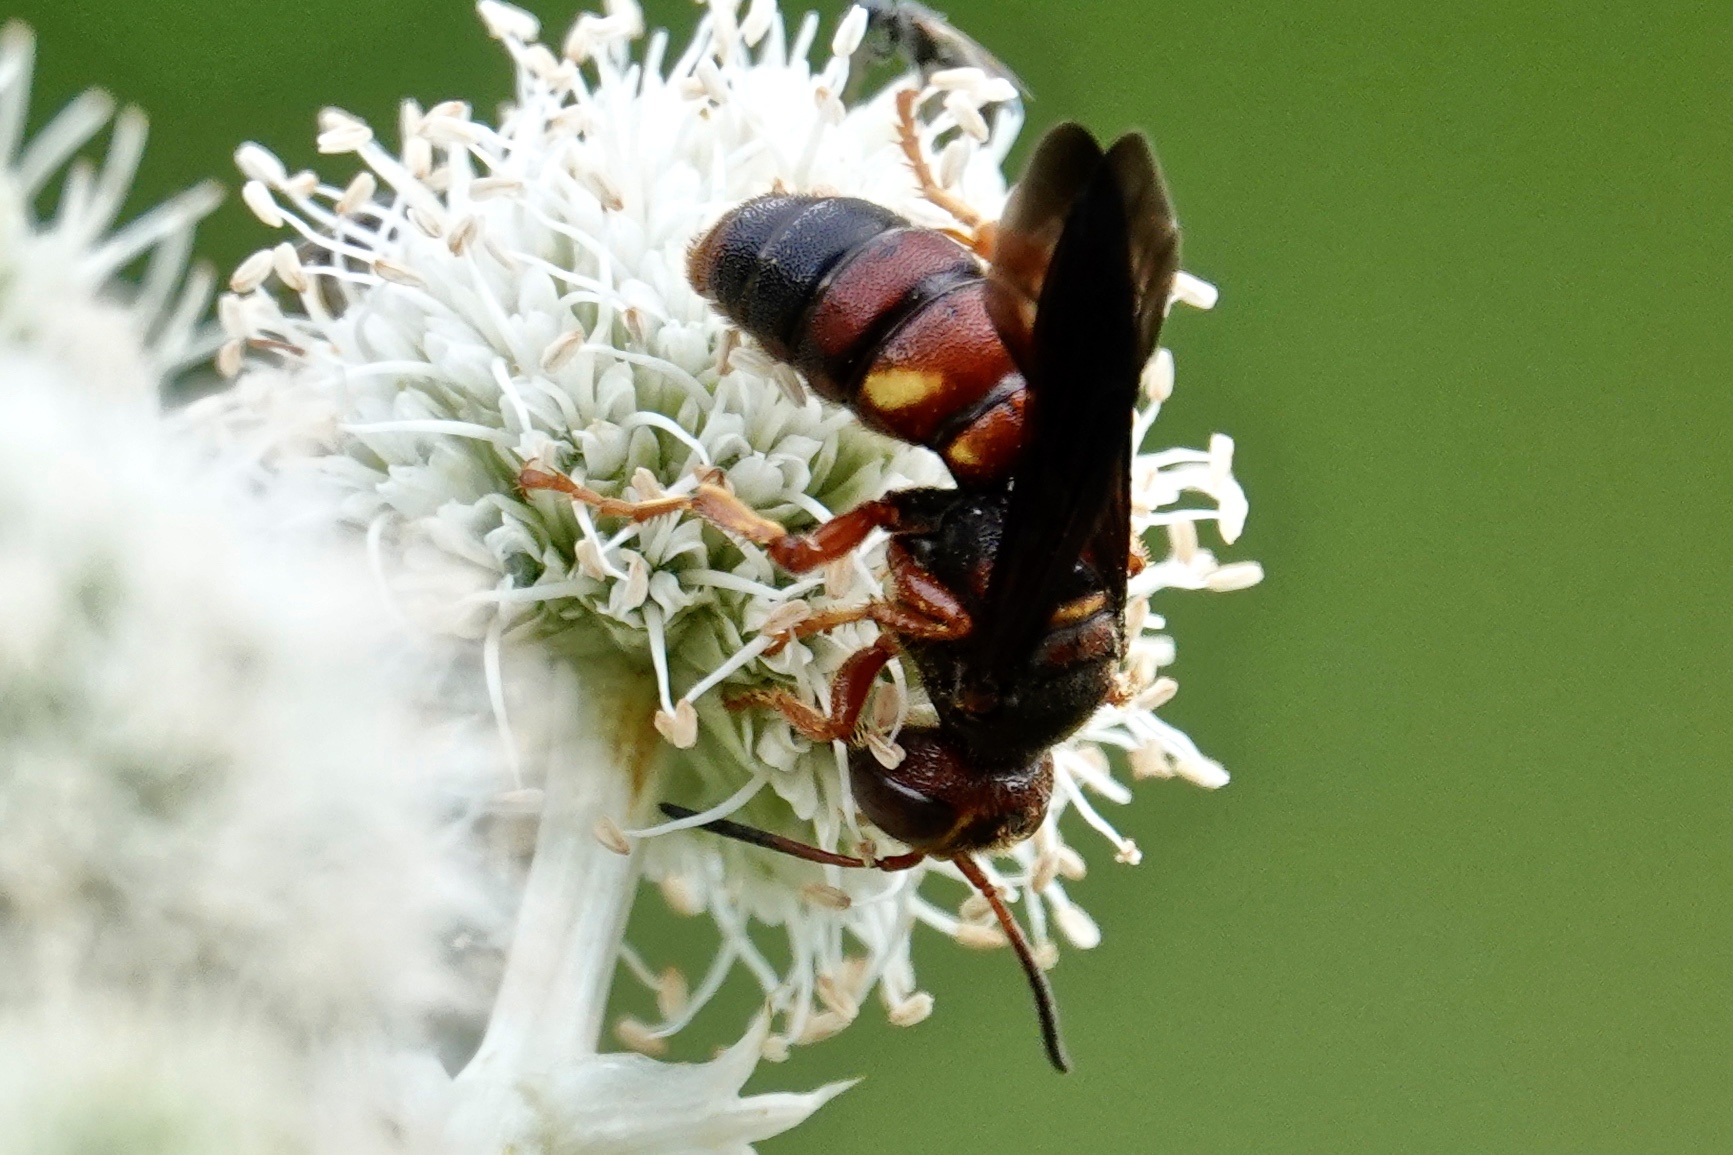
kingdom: Animalia
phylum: Arthropoda
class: Insecta
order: Hymenoptera
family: Crabronidae
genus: Cerceris
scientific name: Cerceris bicornuta
